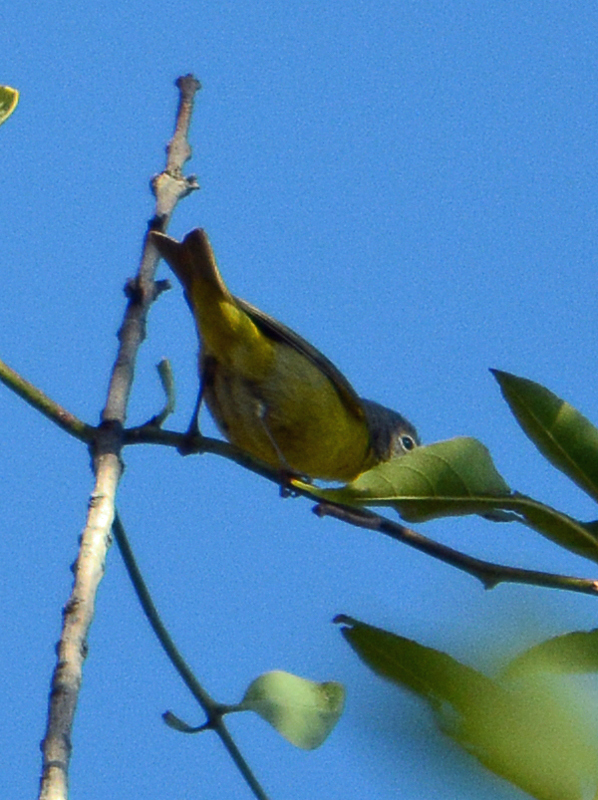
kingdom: Animalia
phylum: Chordata
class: Aves
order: Passeriformes
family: Parulidae
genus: Leiothlypis
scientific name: Leiothlypis ruficapilla
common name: Nashville warbler
